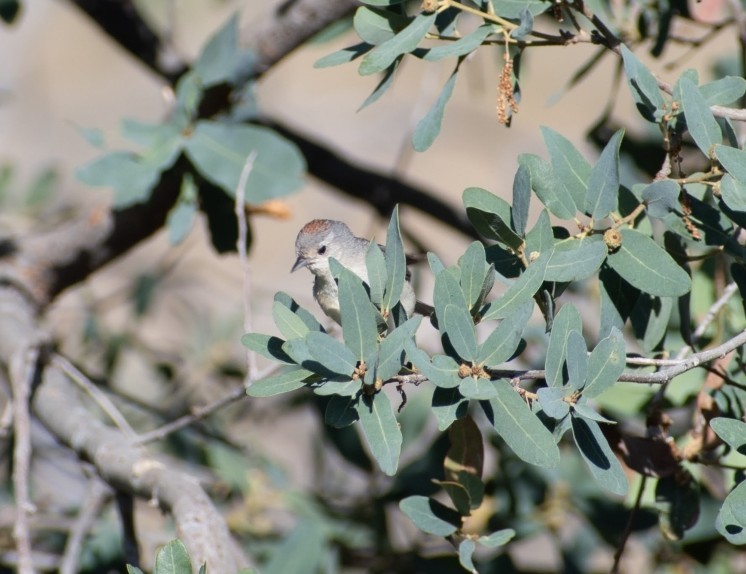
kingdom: Animalia
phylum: Chordata
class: Aves
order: Passeriformes
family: Parulidae
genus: Leiothlypis
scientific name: Leiothlypis luciae
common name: Lucy's warbler
